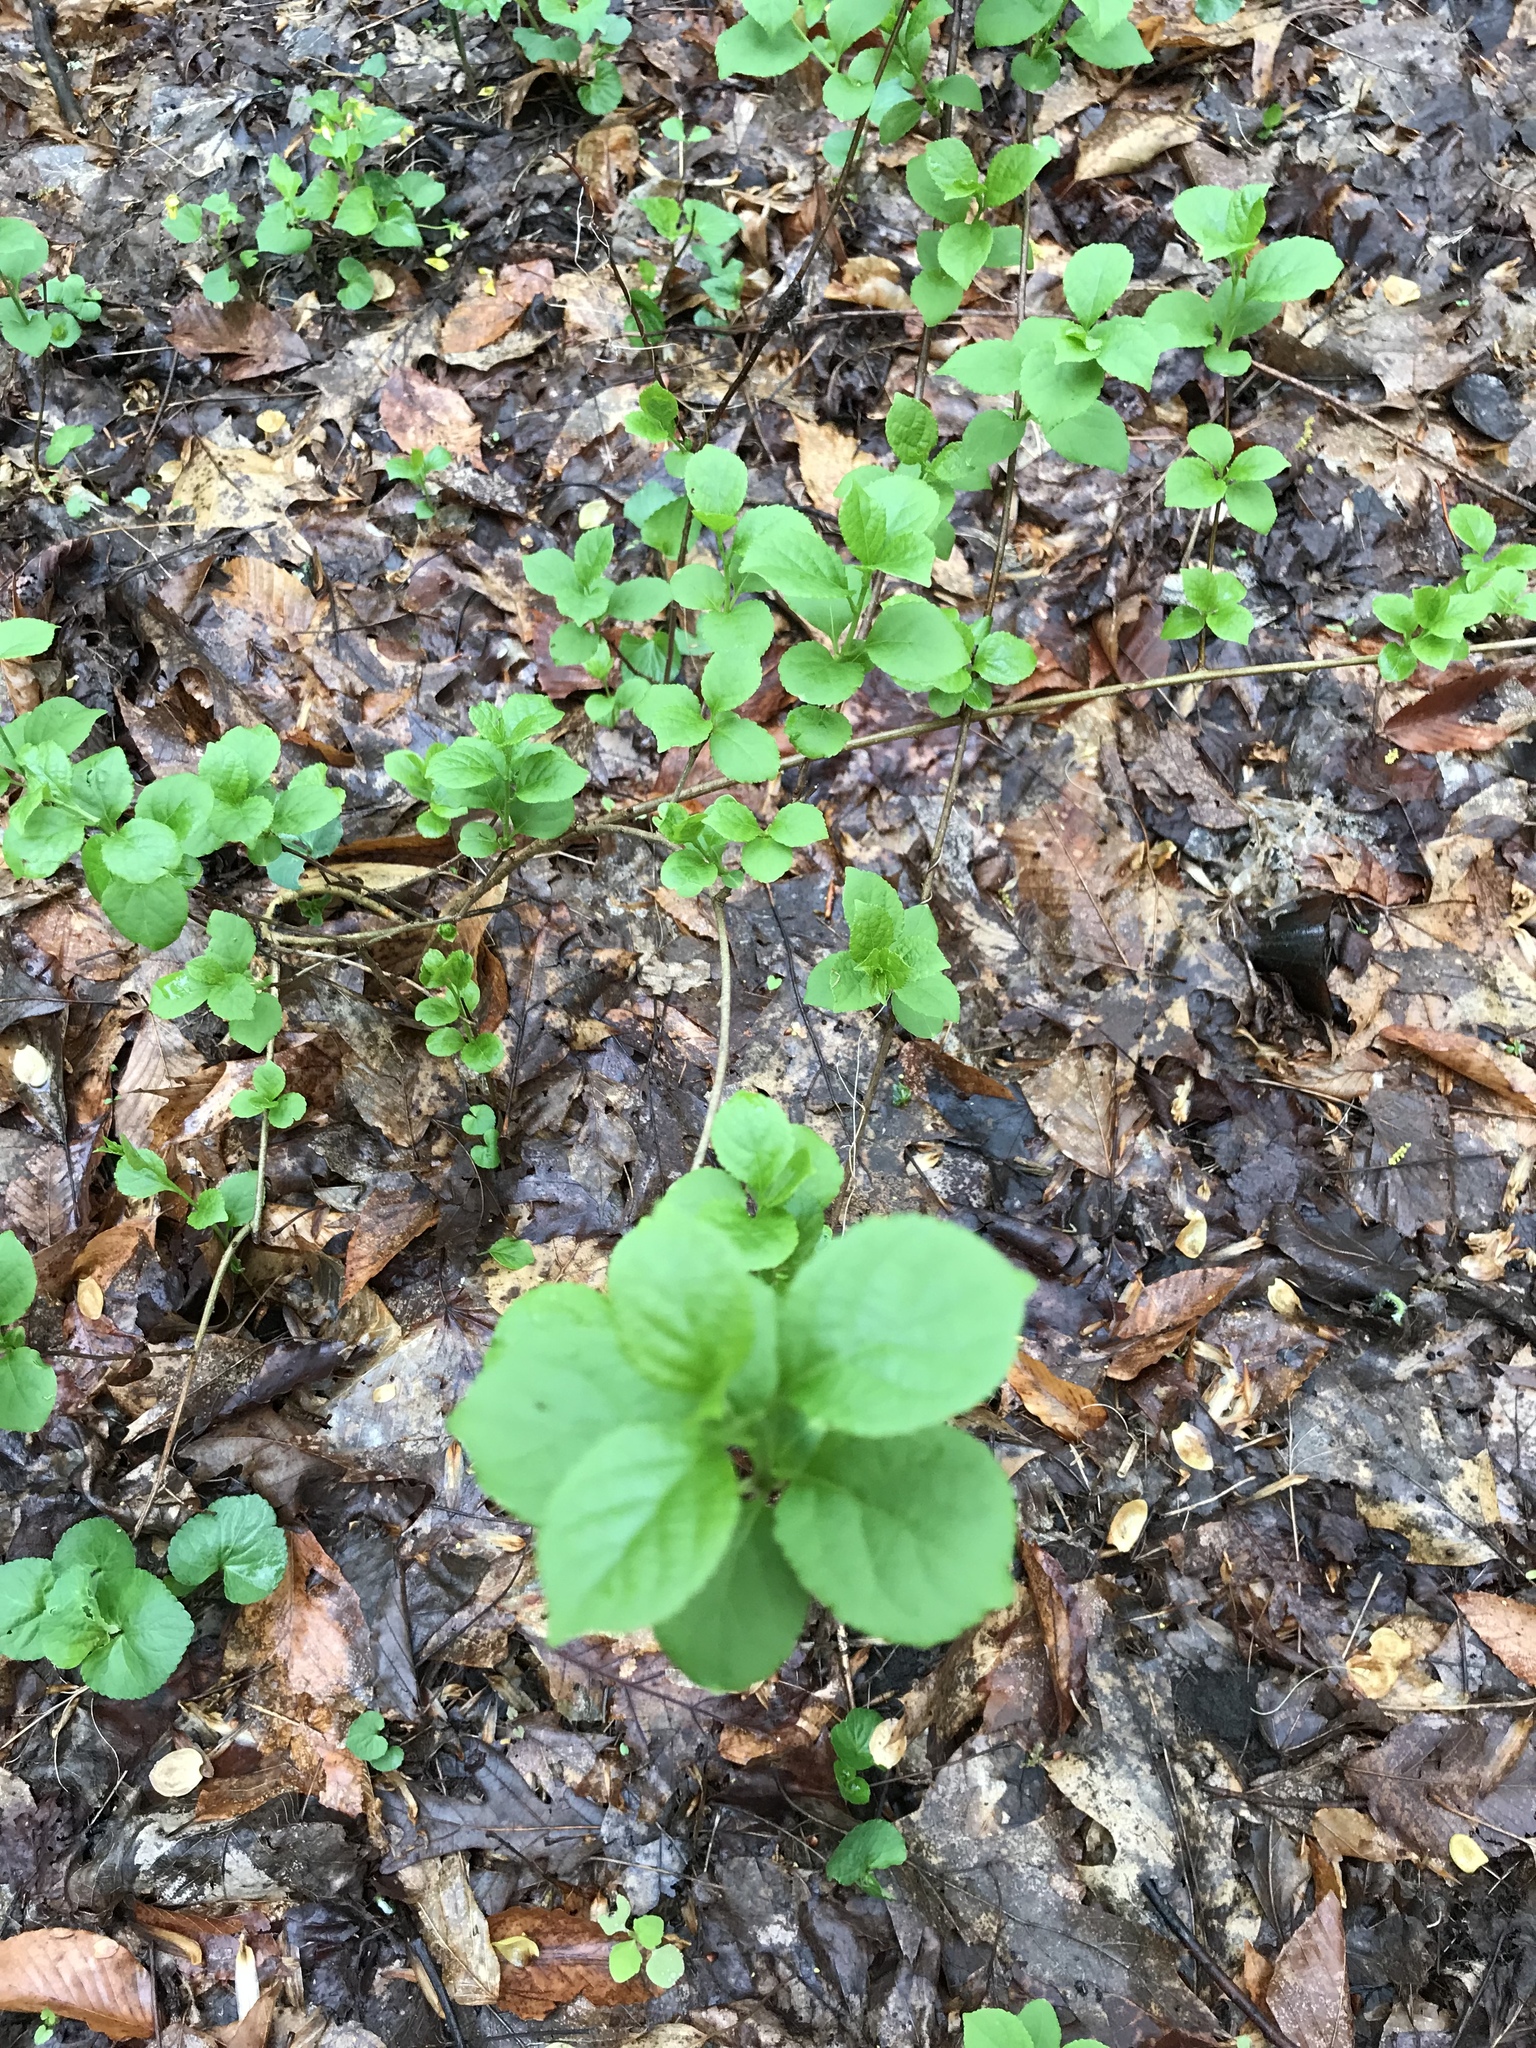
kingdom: Plantae
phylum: Tracheophyta
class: Magnoliopsida
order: Celastrales
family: Celastraceae
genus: Celastrus
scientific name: Celastrus orbiculatus
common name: Oriental bittersweet
